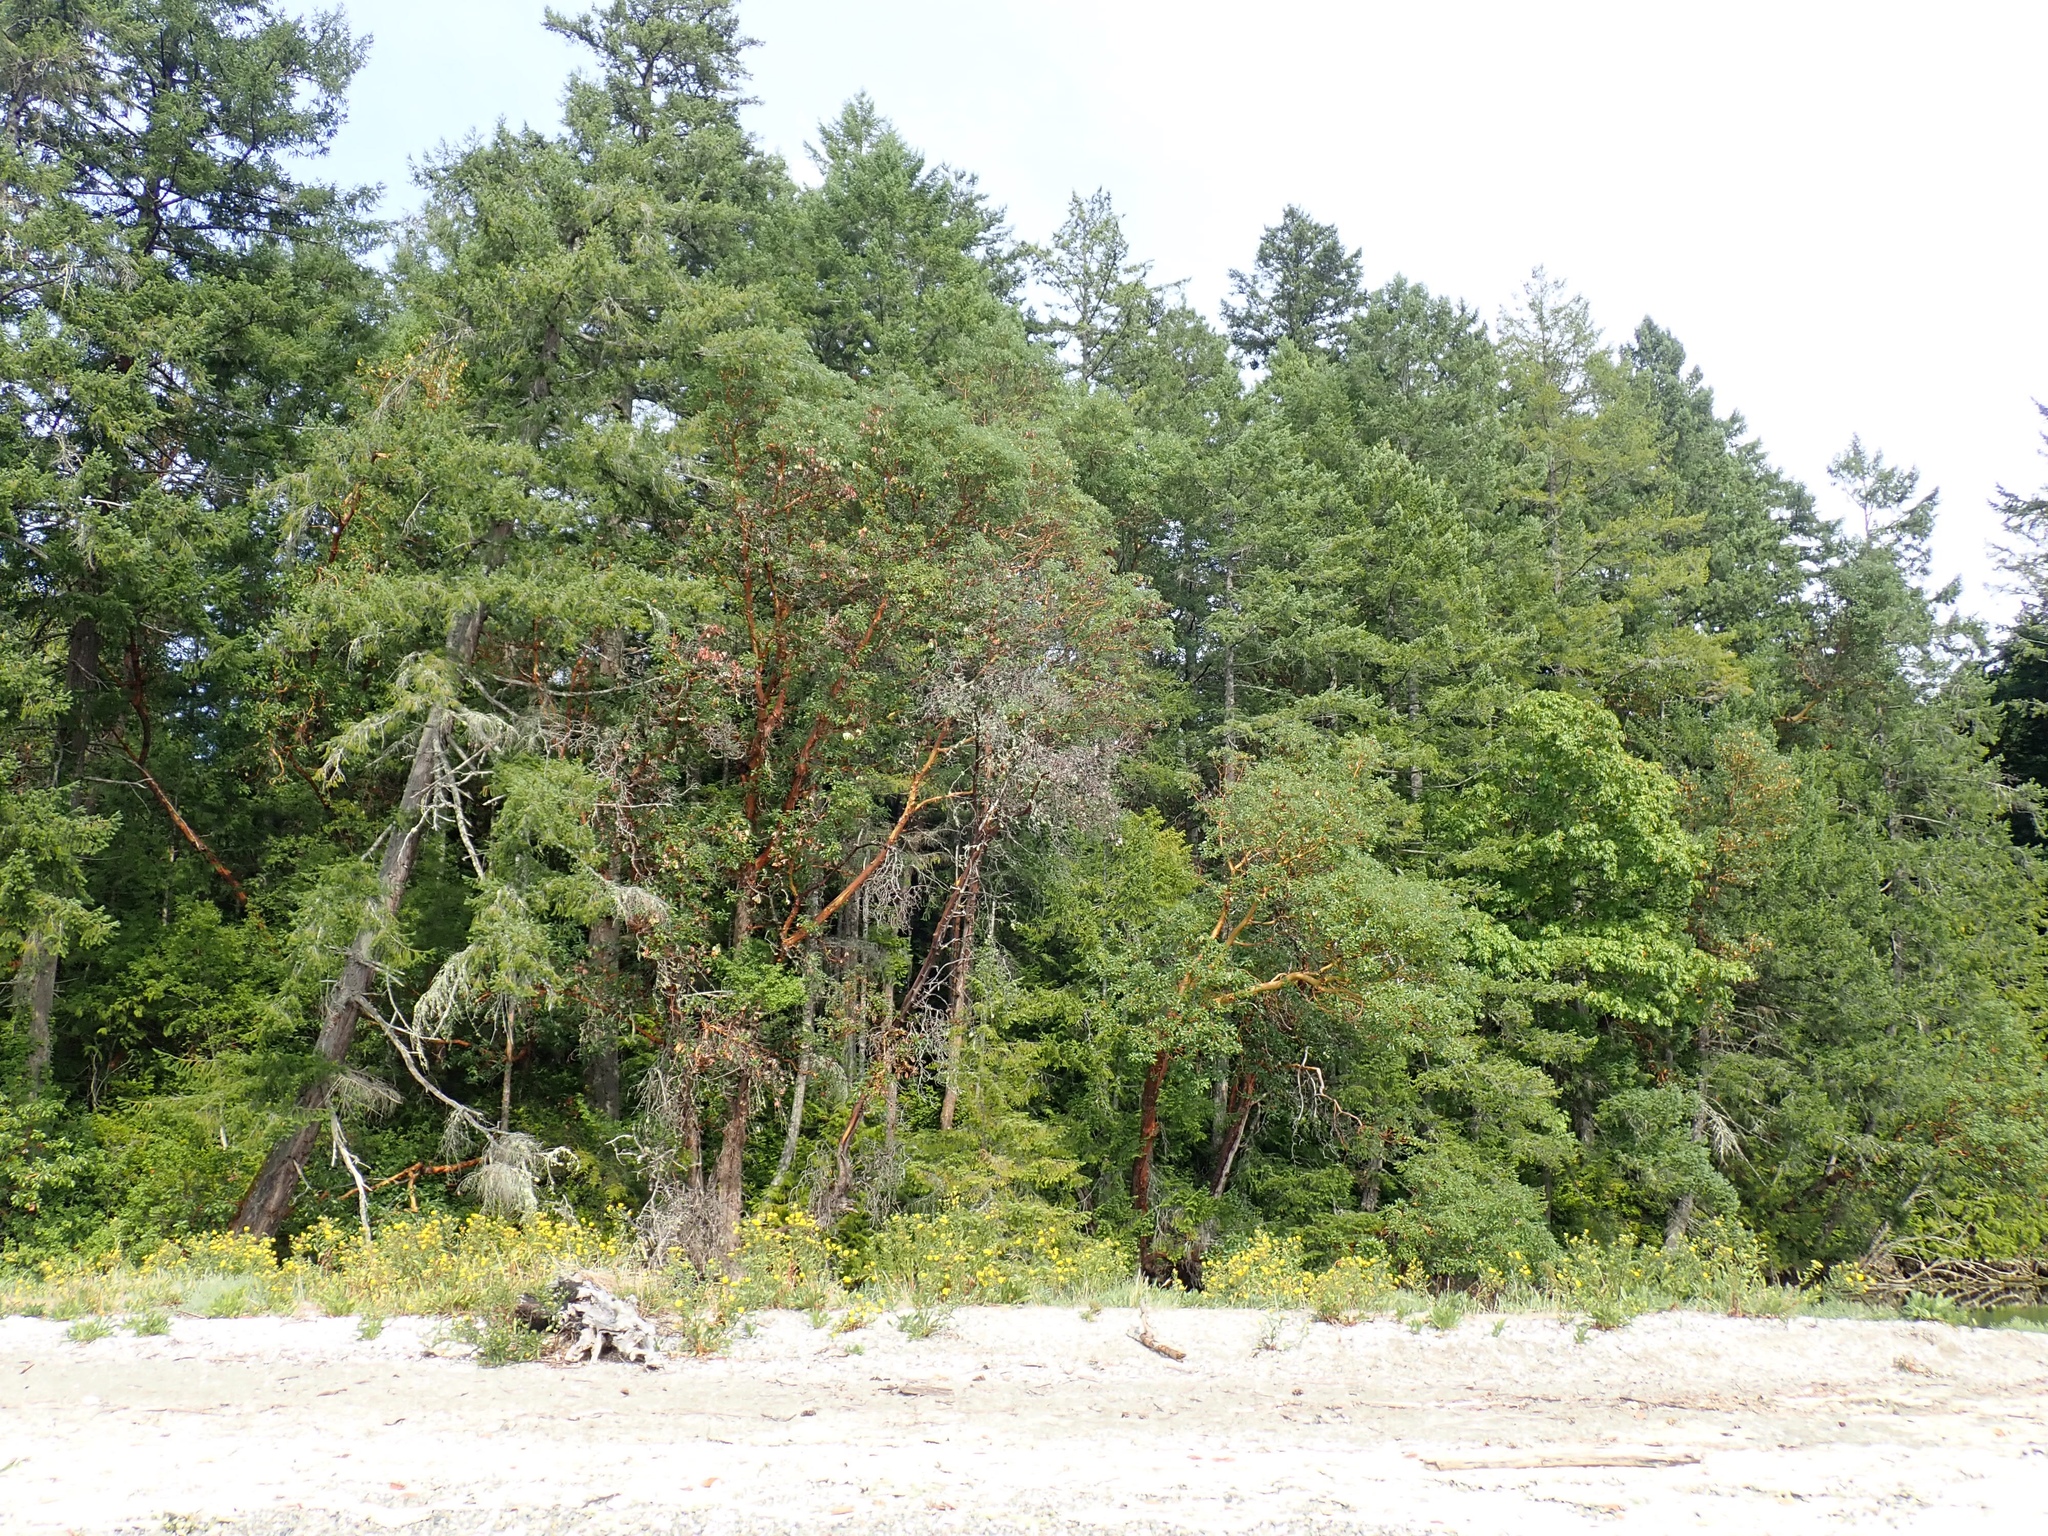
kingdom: Plantae
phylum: Tracheophyta
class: Magnoliopsida
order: Ericales
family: Ericaceae
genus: Arbutus
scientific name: Arbutus menziesii
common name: Pacific madrone
